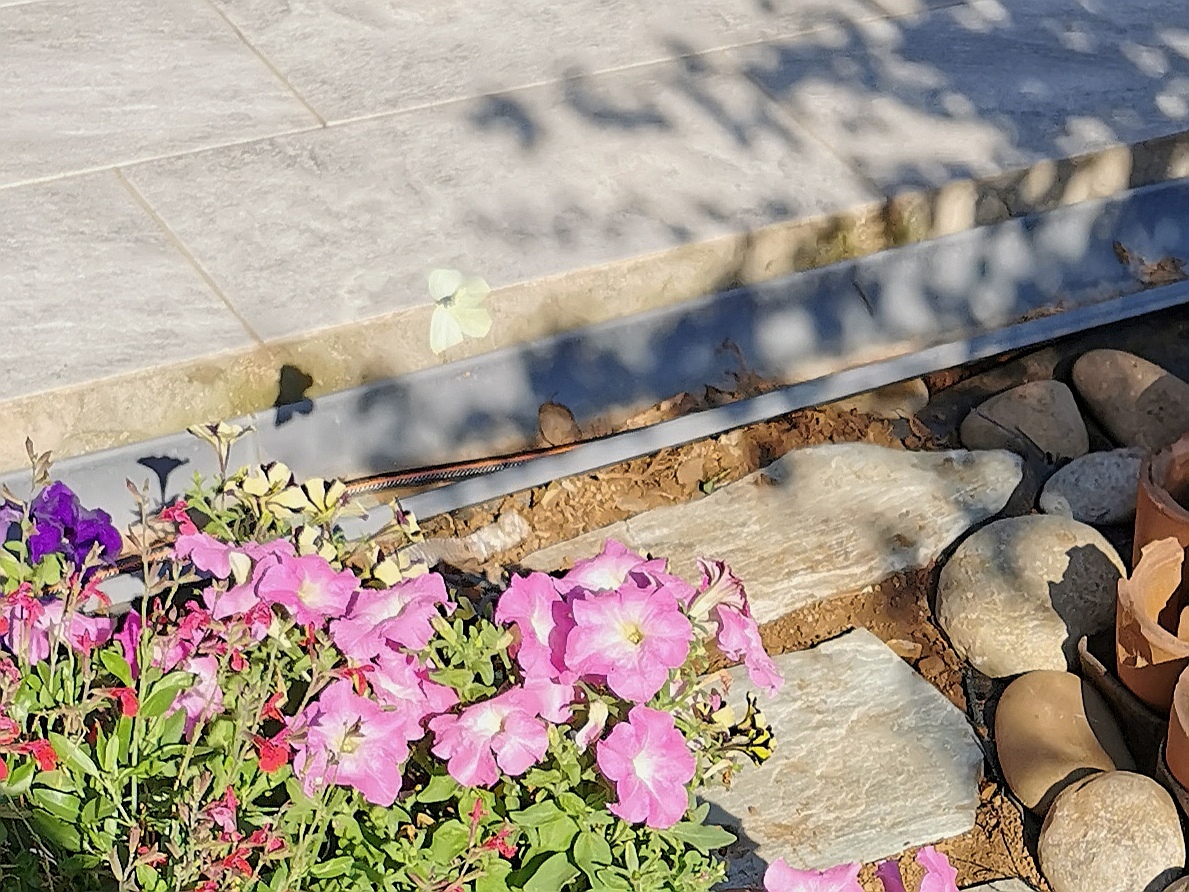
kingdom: Animalia
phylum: Arthropoda
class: Insecta
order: Lepidoptera
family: Pieridae
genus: Gonepteryx
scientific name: Gonepteryx cleopatra
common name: Cleopatra
